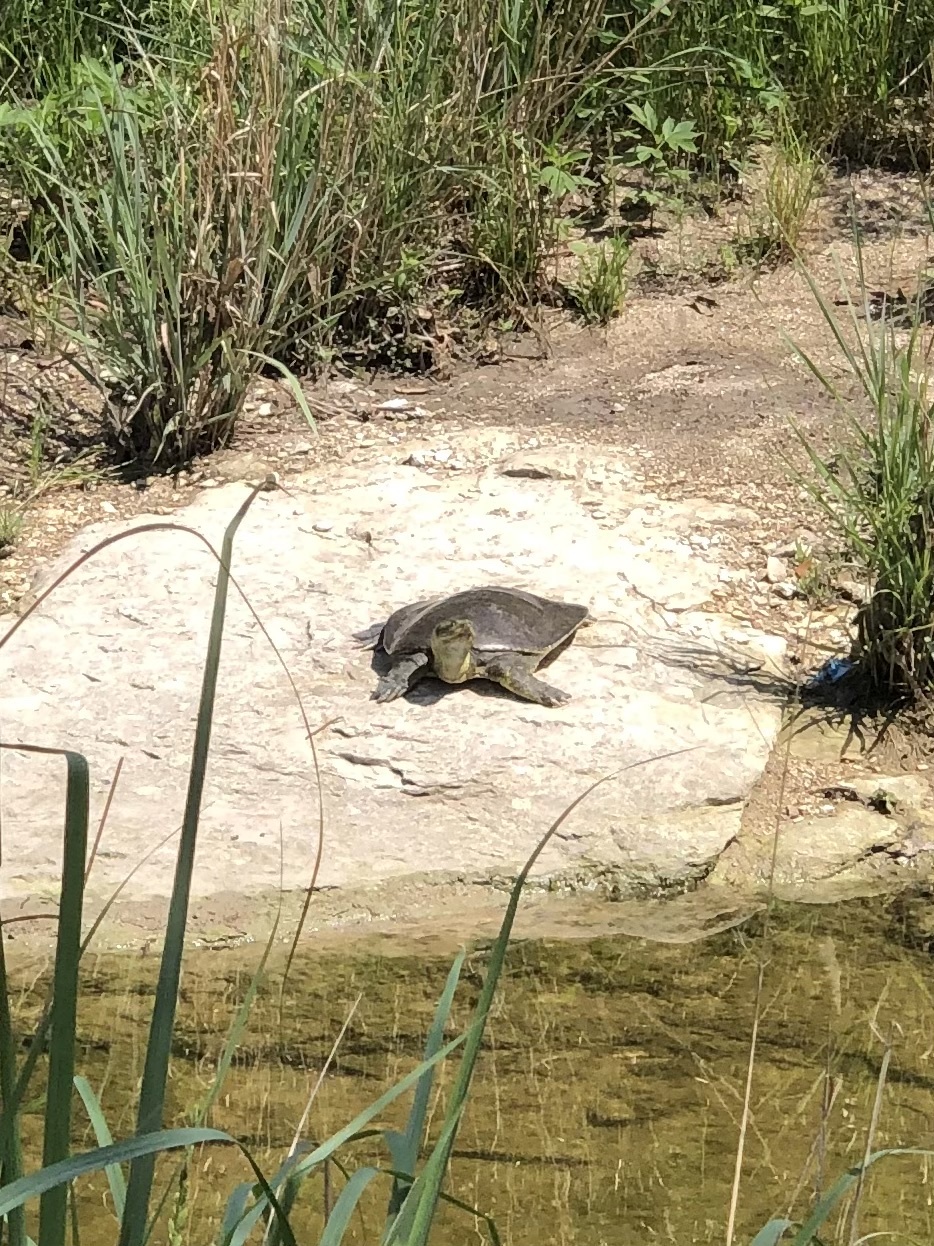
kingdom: Animalia
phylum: Chordata
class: Testudines
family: Trionychidae
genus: Apalone
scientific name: Apalone spinifera
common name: Spiny softshell turtle
